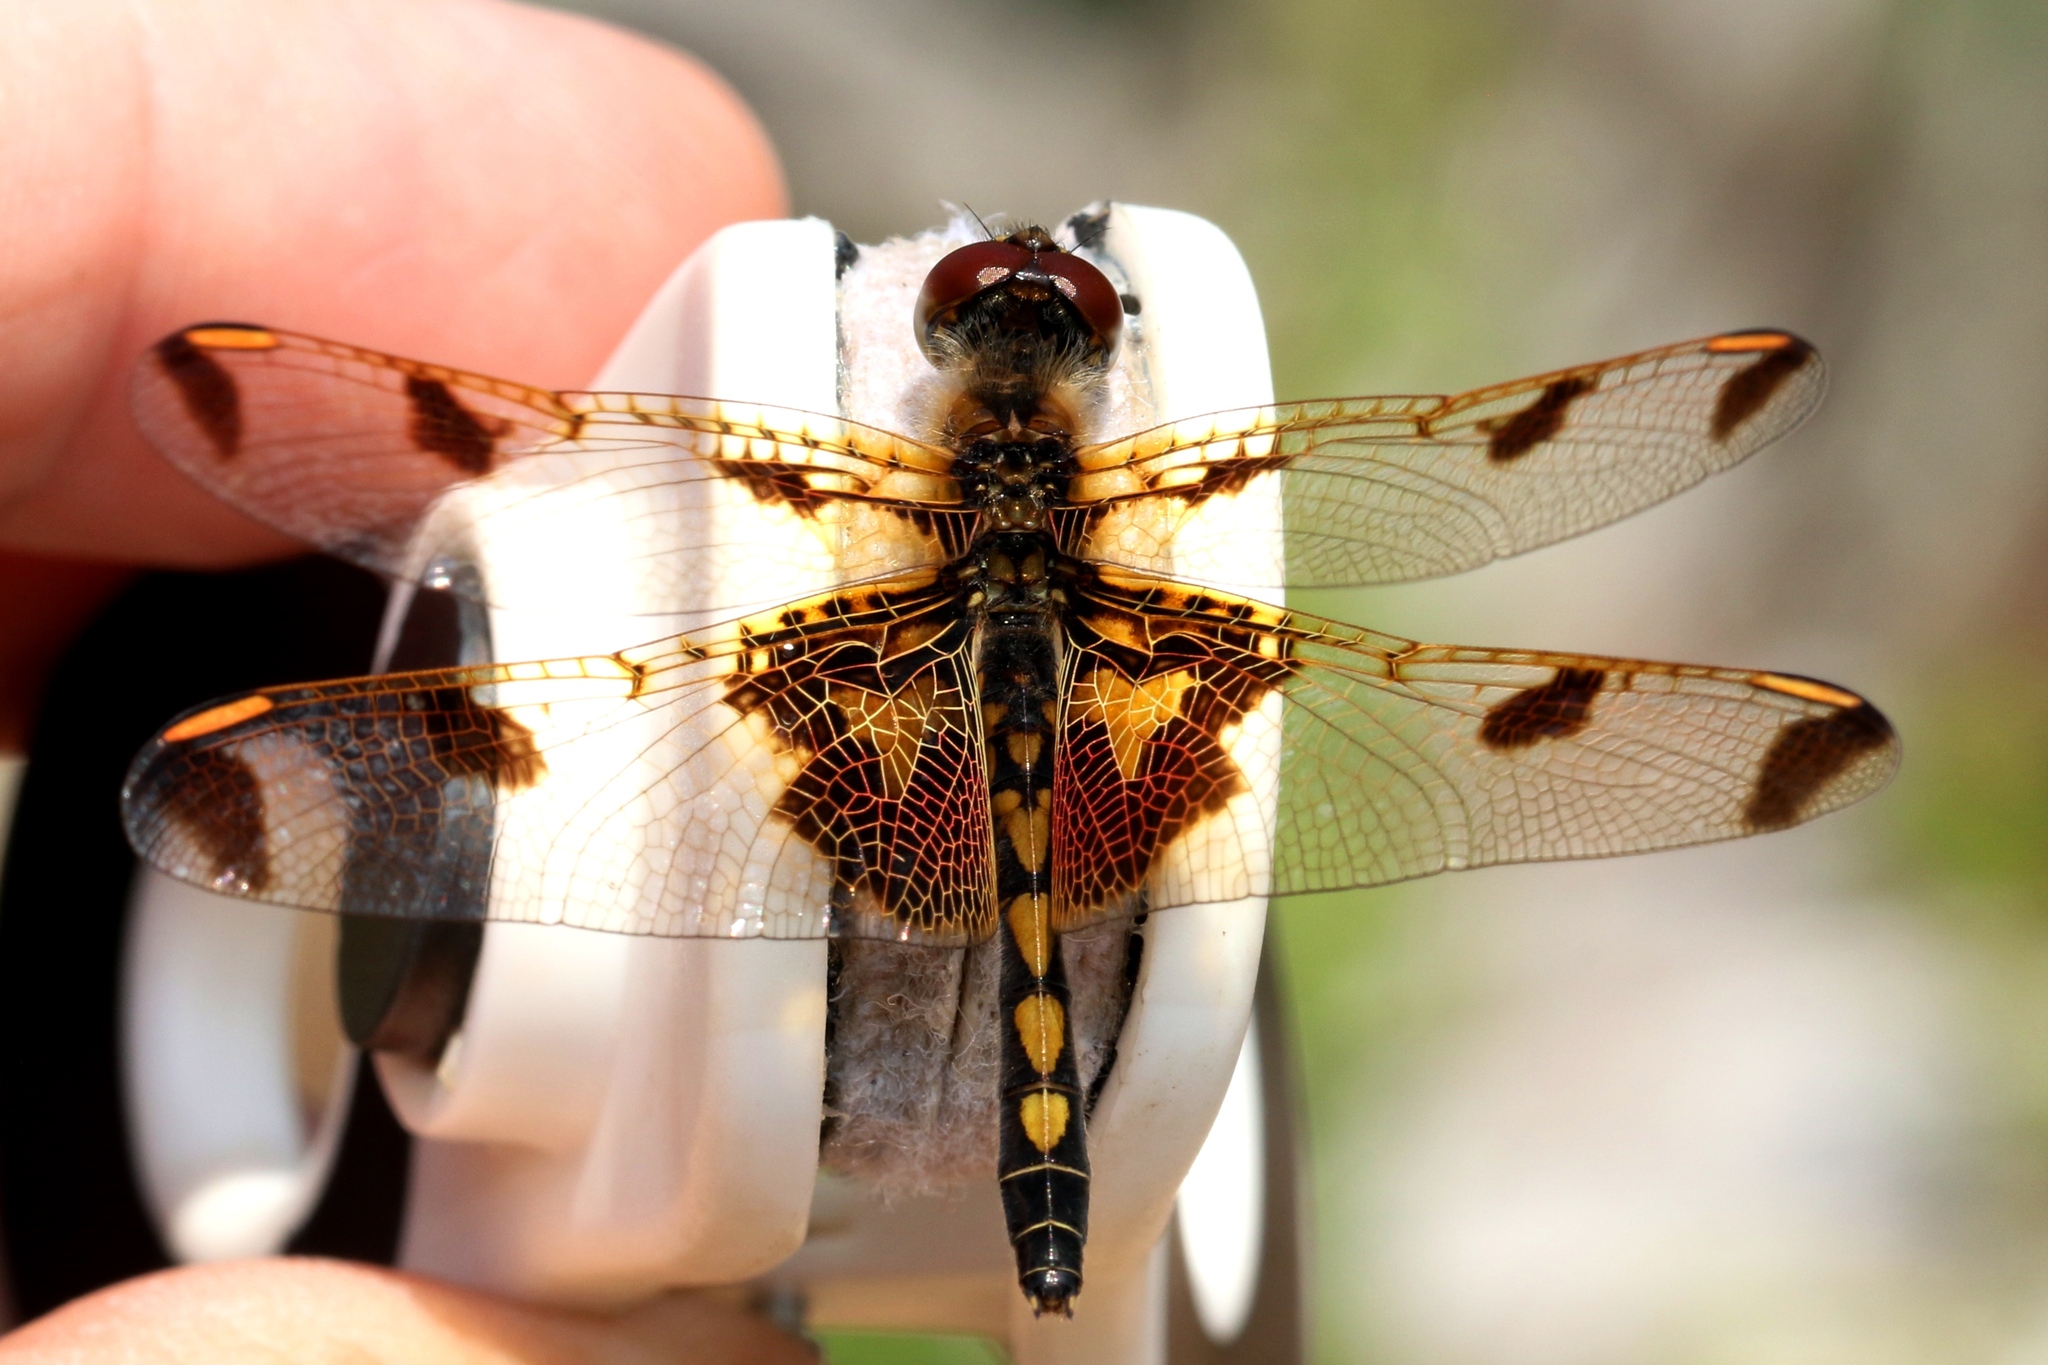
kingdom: Animalia
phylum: Arthropoda
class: Insecta
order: Odonata
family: Libellulidae
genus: Celithemis
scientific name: Celithemis elisa
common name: Calico pennant
